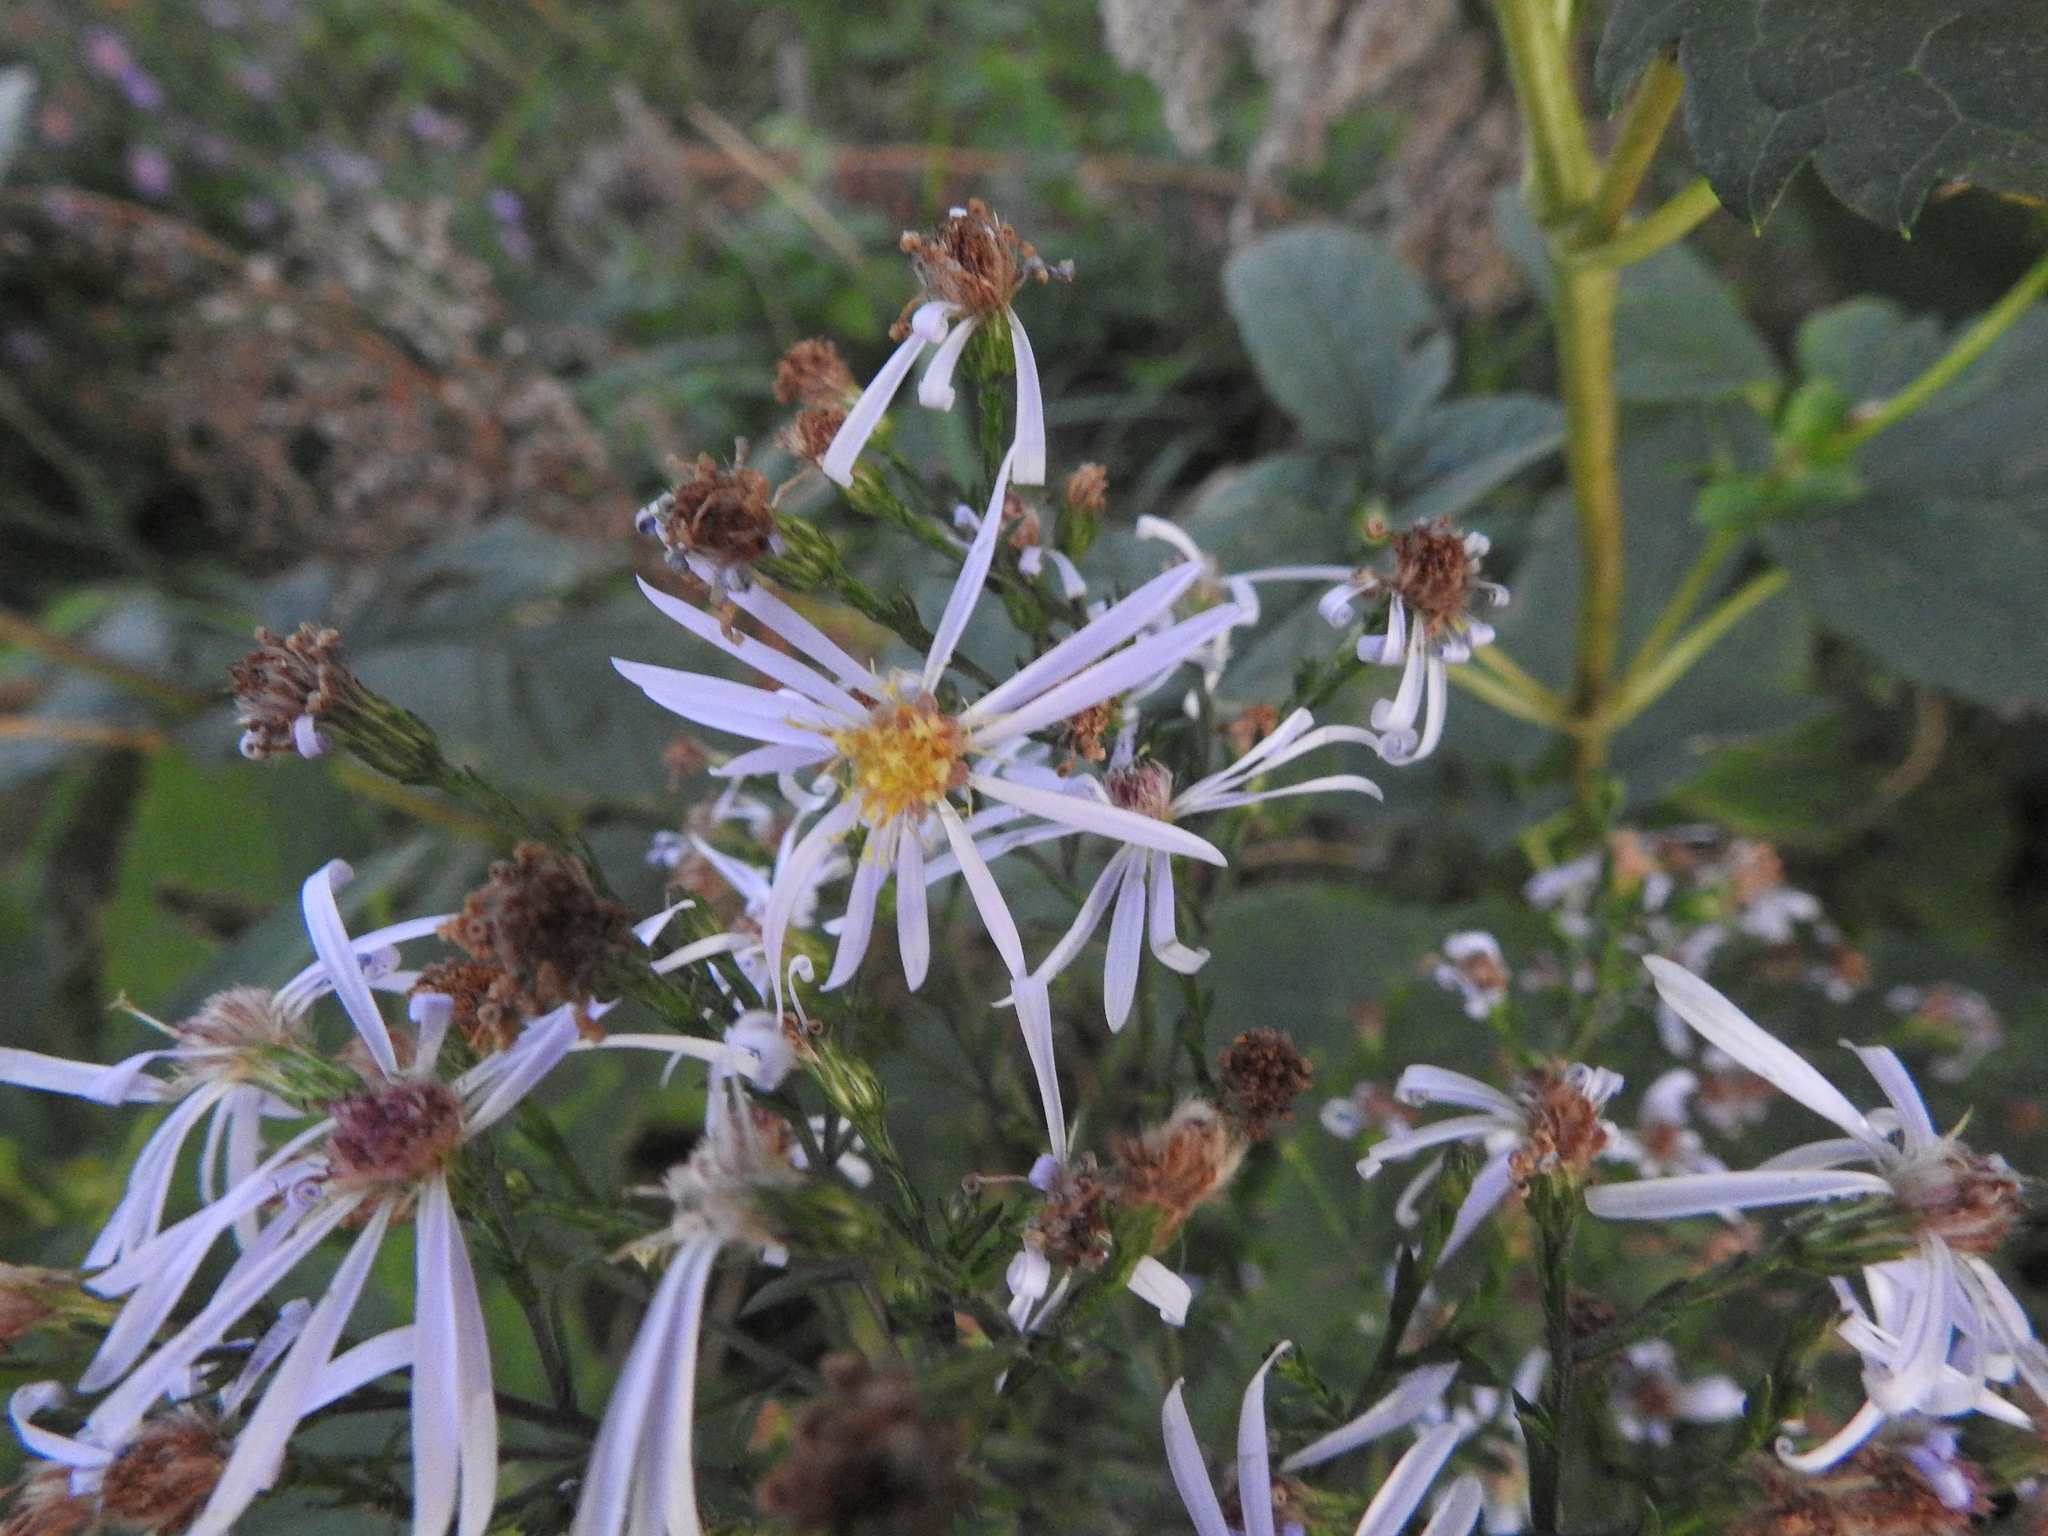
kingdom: Plantae
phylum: Tracheophyta
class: Magnoliopsida
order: Asterales
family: Asteraceae
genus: Eurybia
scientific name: Eurybia macrophylla
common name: Big-leaved aster
